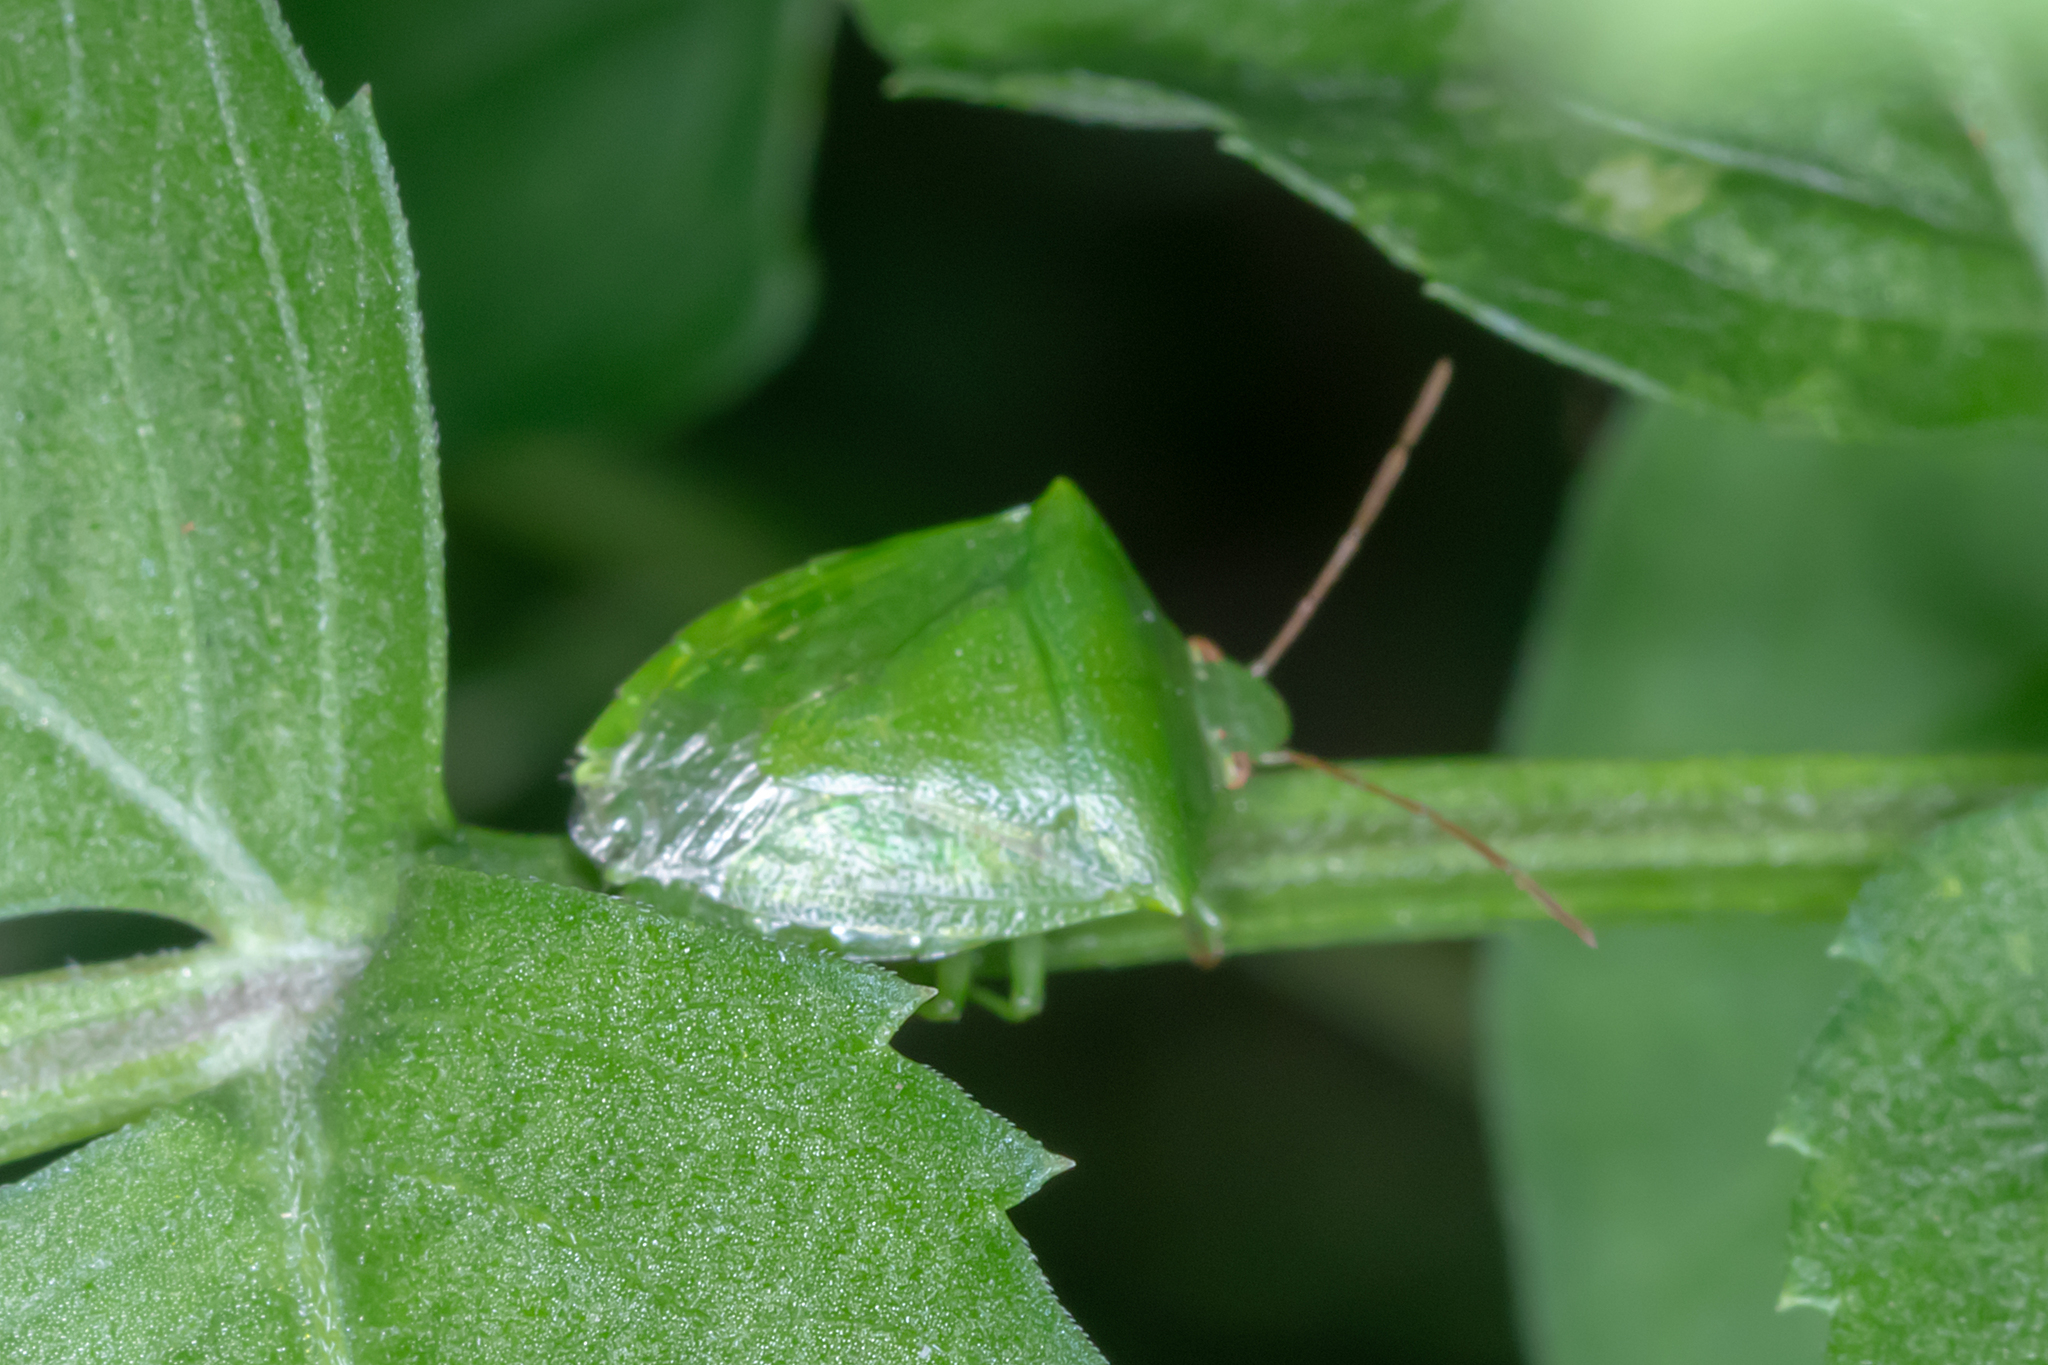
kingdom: Animalia
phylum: Arthropoda
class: Insecta
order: Hemiptera
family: Pentatomidae
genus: Cuspicona
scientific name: Cuspicona simplex
